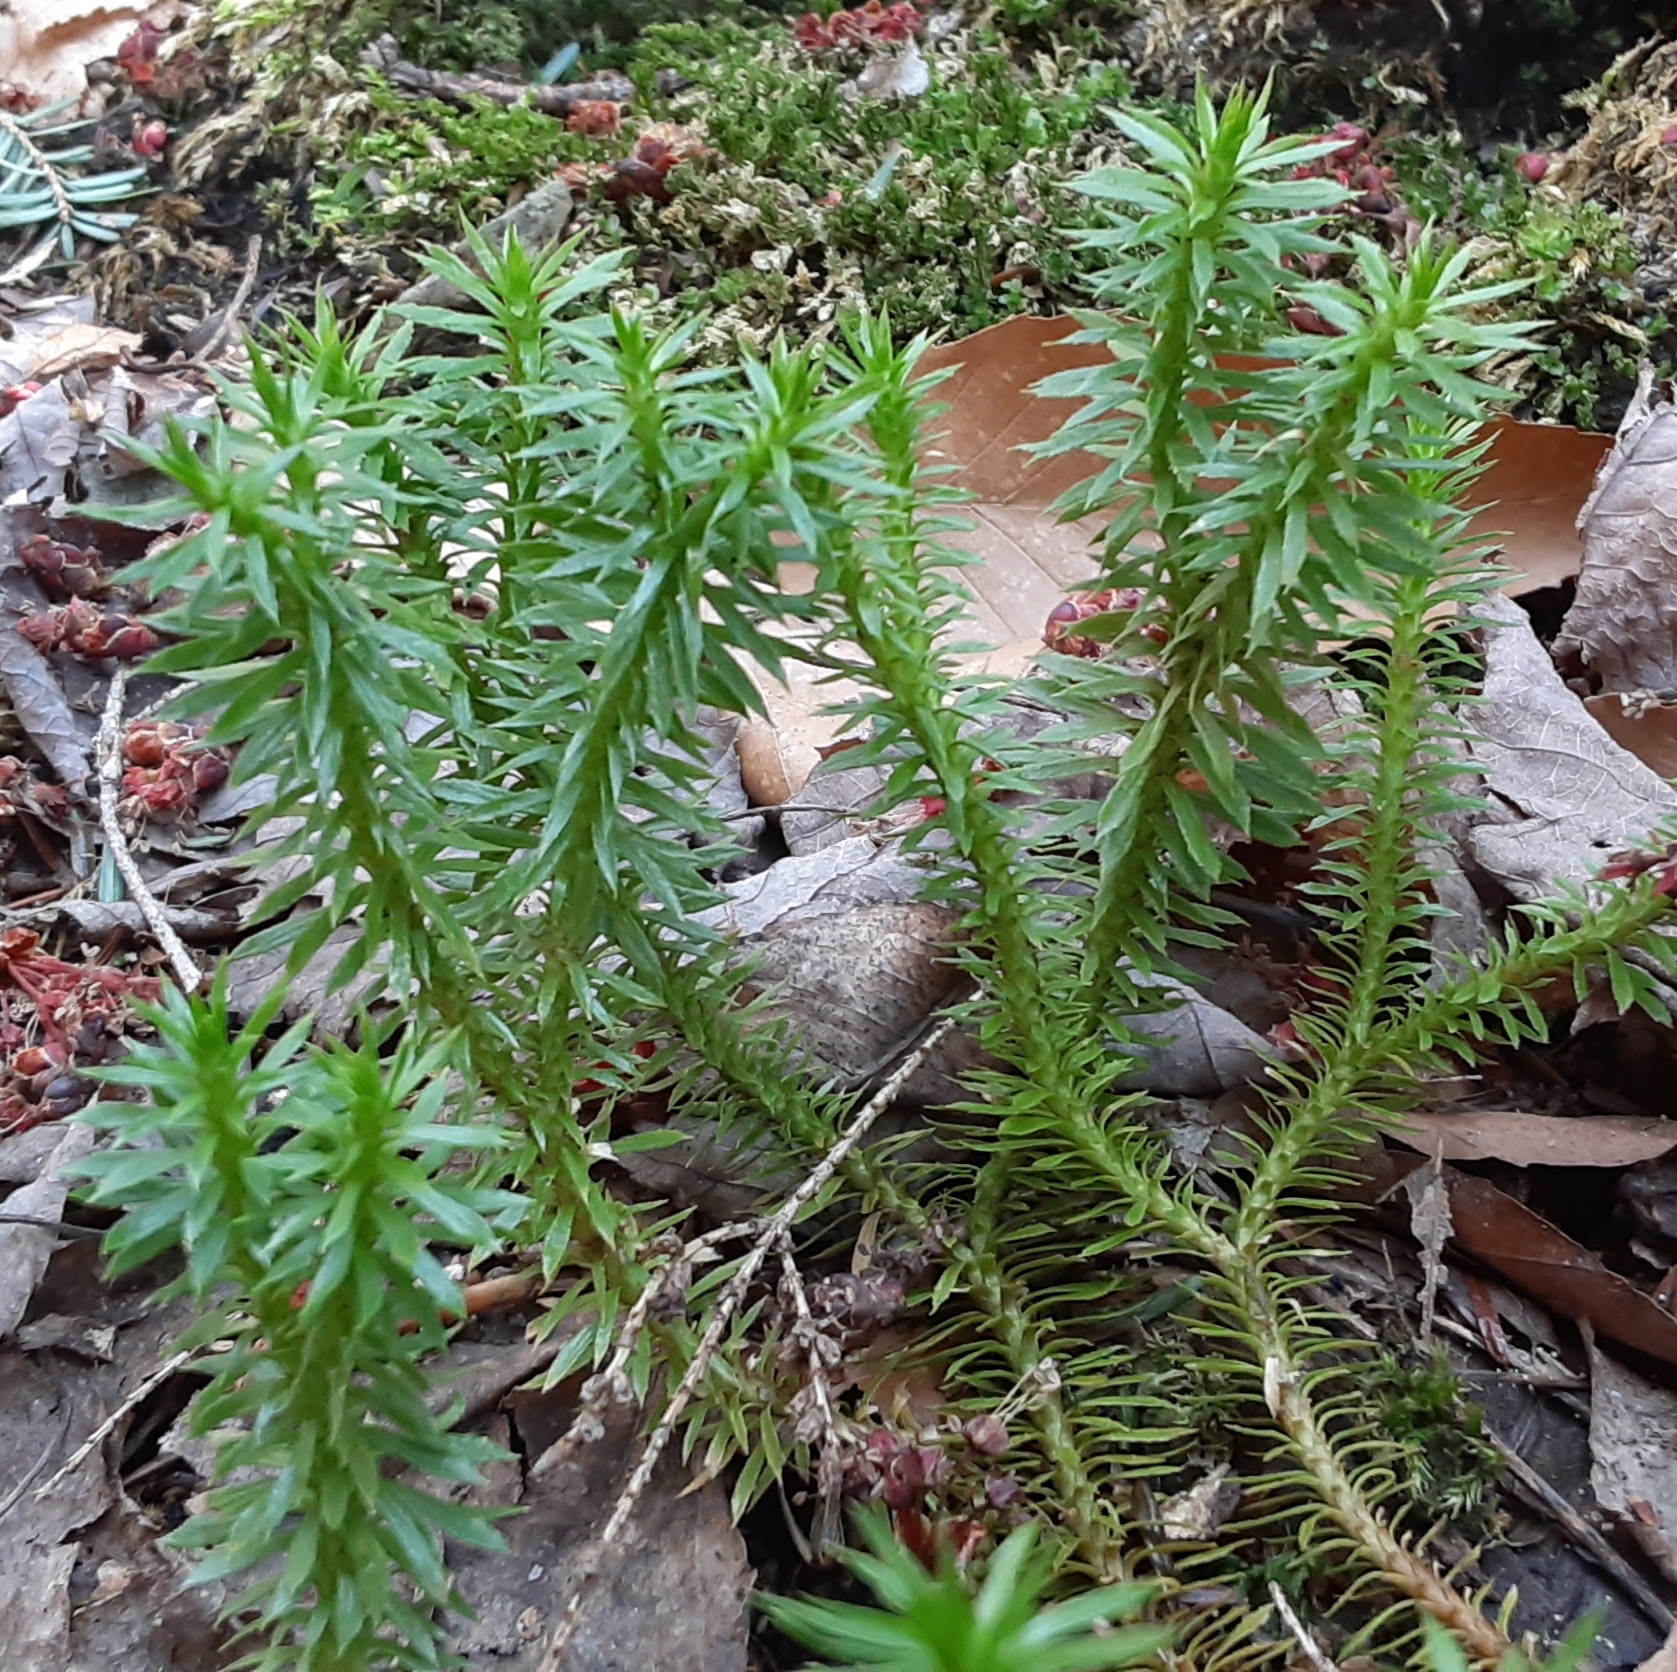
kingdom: Plantae
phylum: Tracheophyta
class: Lycopodiopsida
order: Lycopodiales
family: Lycopodiaceae
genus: Huperzia
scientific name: Huperzia lucidula
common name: Shining clubmoss
